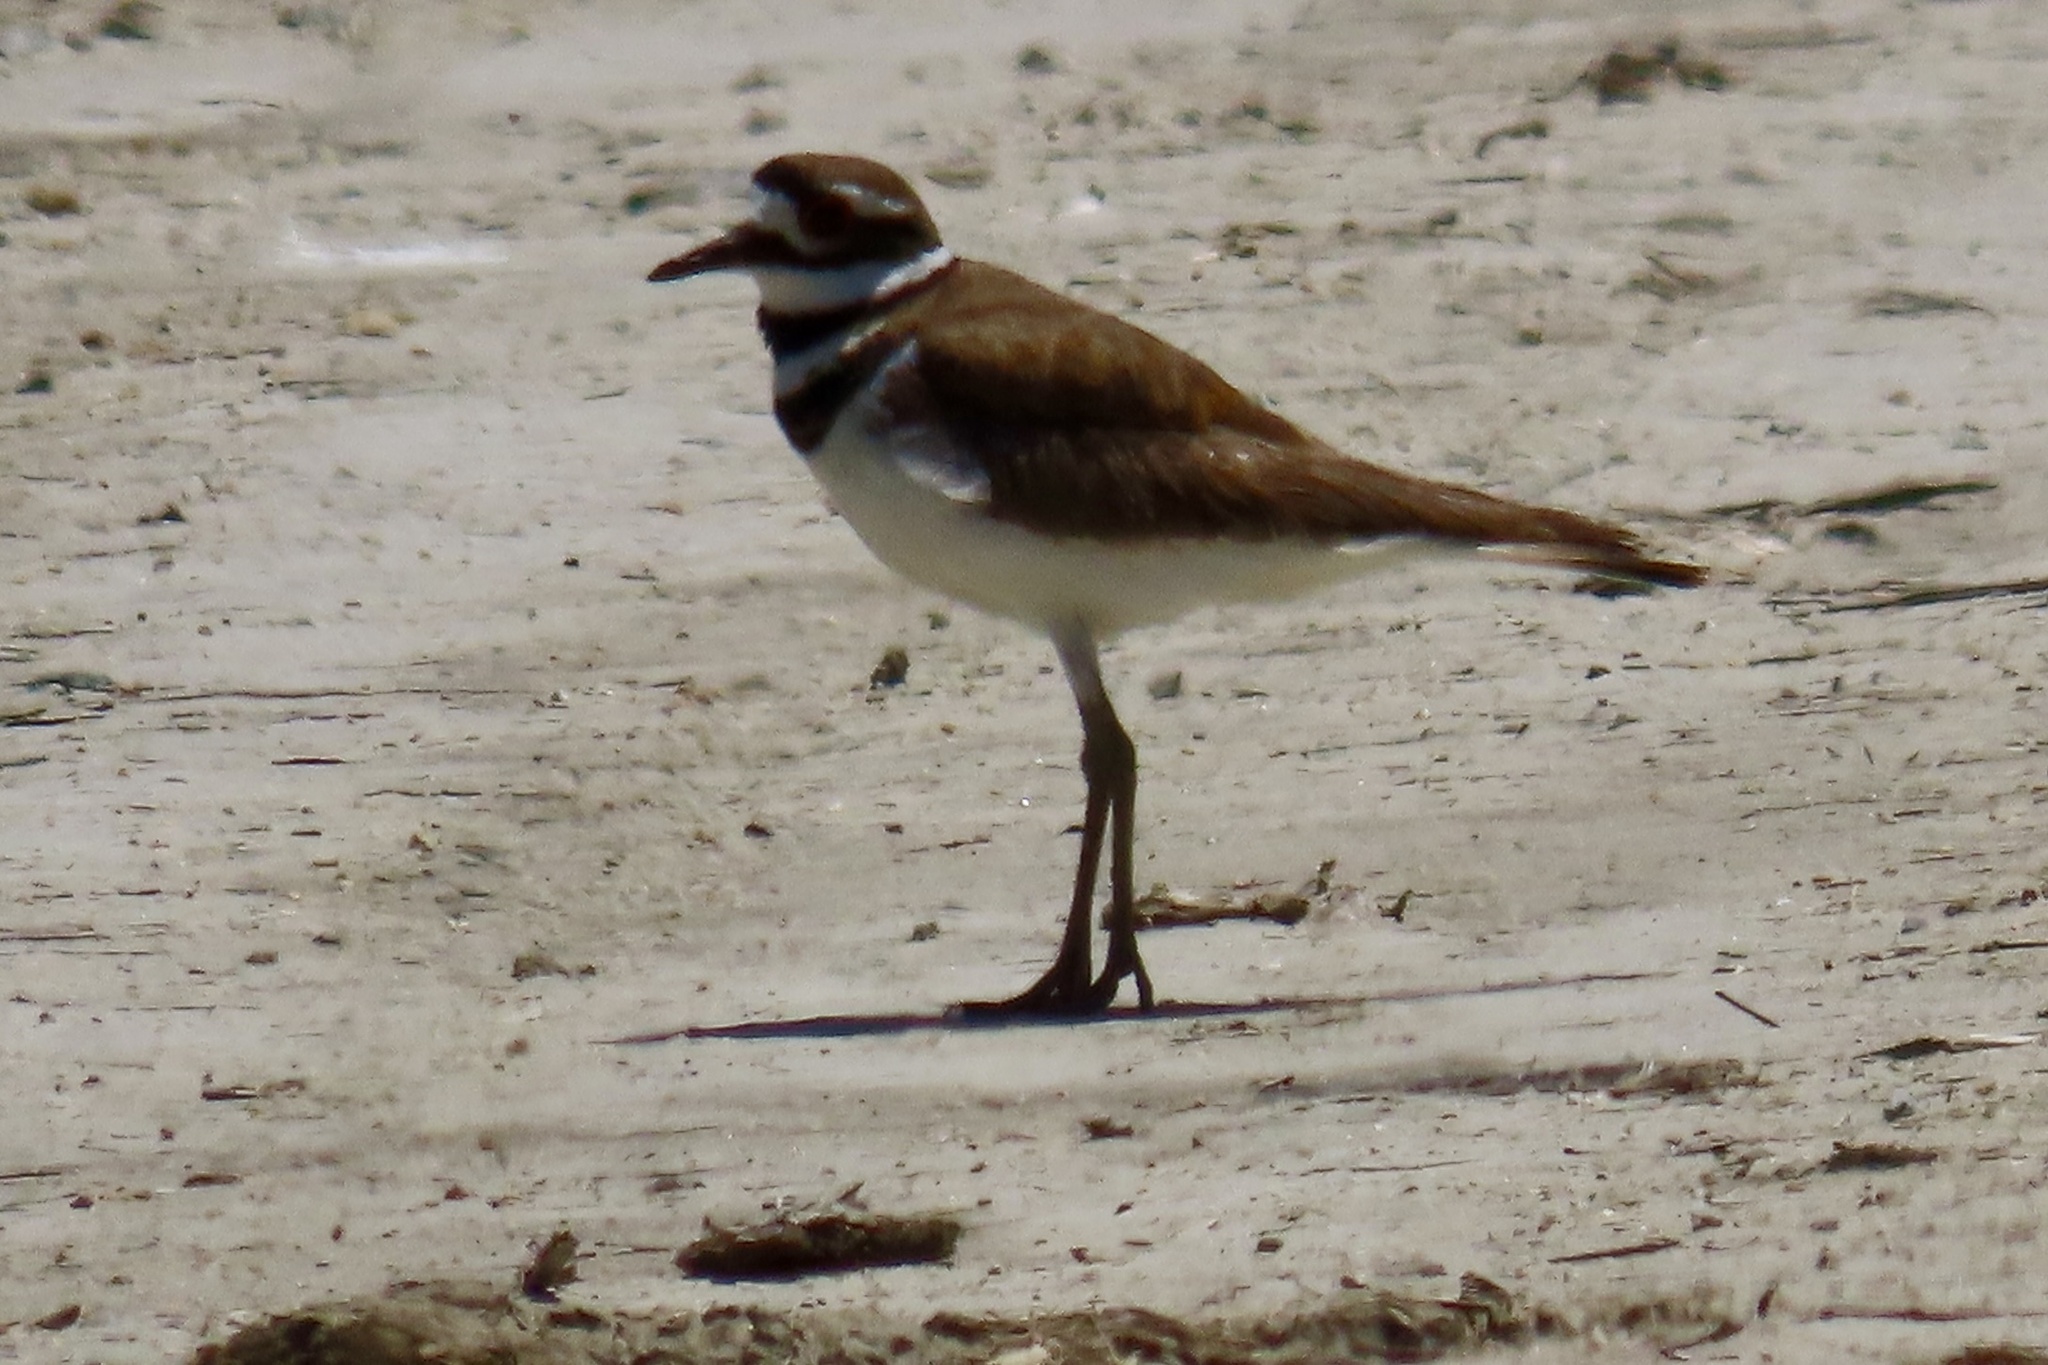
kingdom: Animalia
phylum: Chordata
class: Aves
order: Charadriiformes
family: Charadriidae
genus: Charadrius
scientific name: Charadrius vociferus
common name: Killdeer
